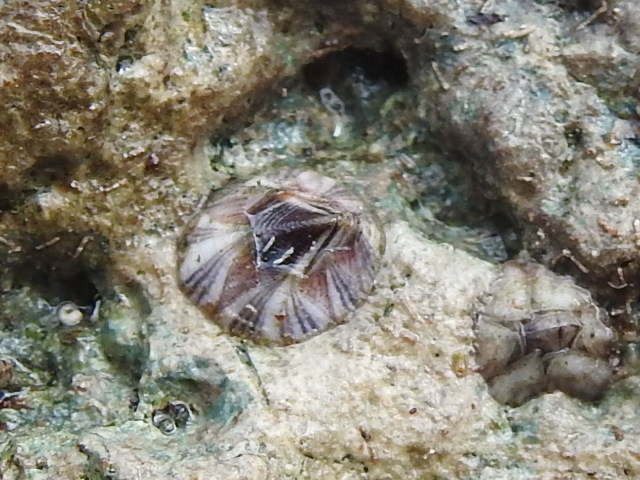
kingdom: Animalia
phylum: Arthropoda
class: Maxillopoda
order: Sessilia
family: Balanidae
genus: Amphibalanus
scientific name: Amphibalanus amphitrite
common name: Striped acorn barnacle
